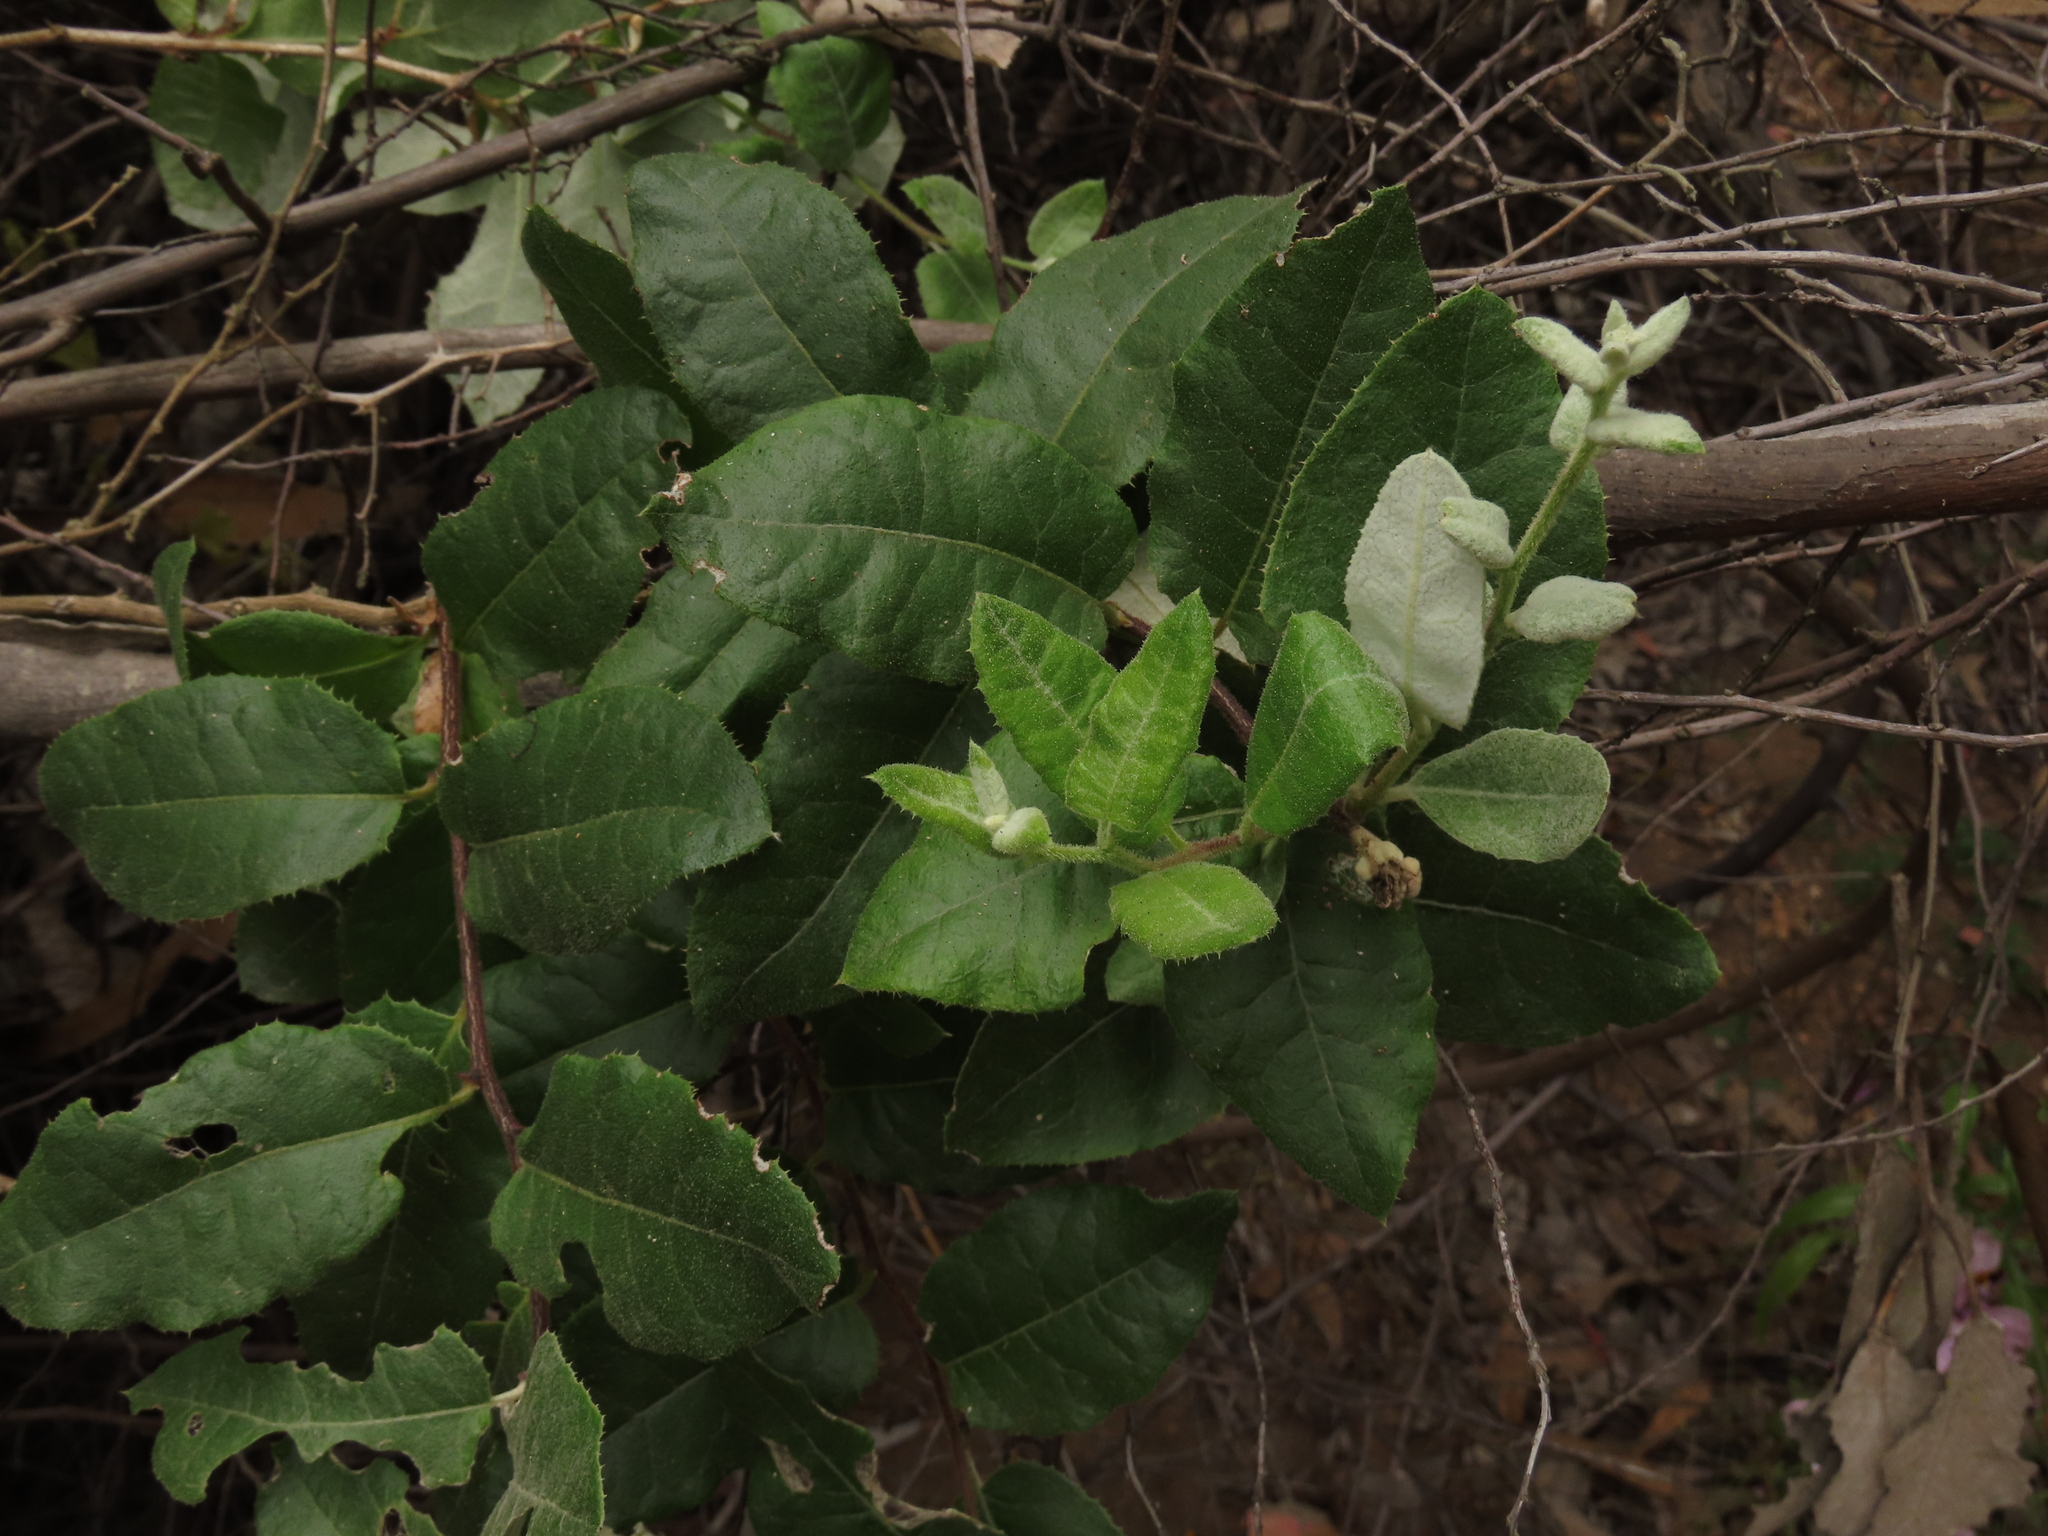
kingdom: Plantae
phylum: Tracheophyta
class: Magnoliopsida
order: Asterales
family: Asteraceae
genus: Proustia
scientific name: Proustia pyrifolia
